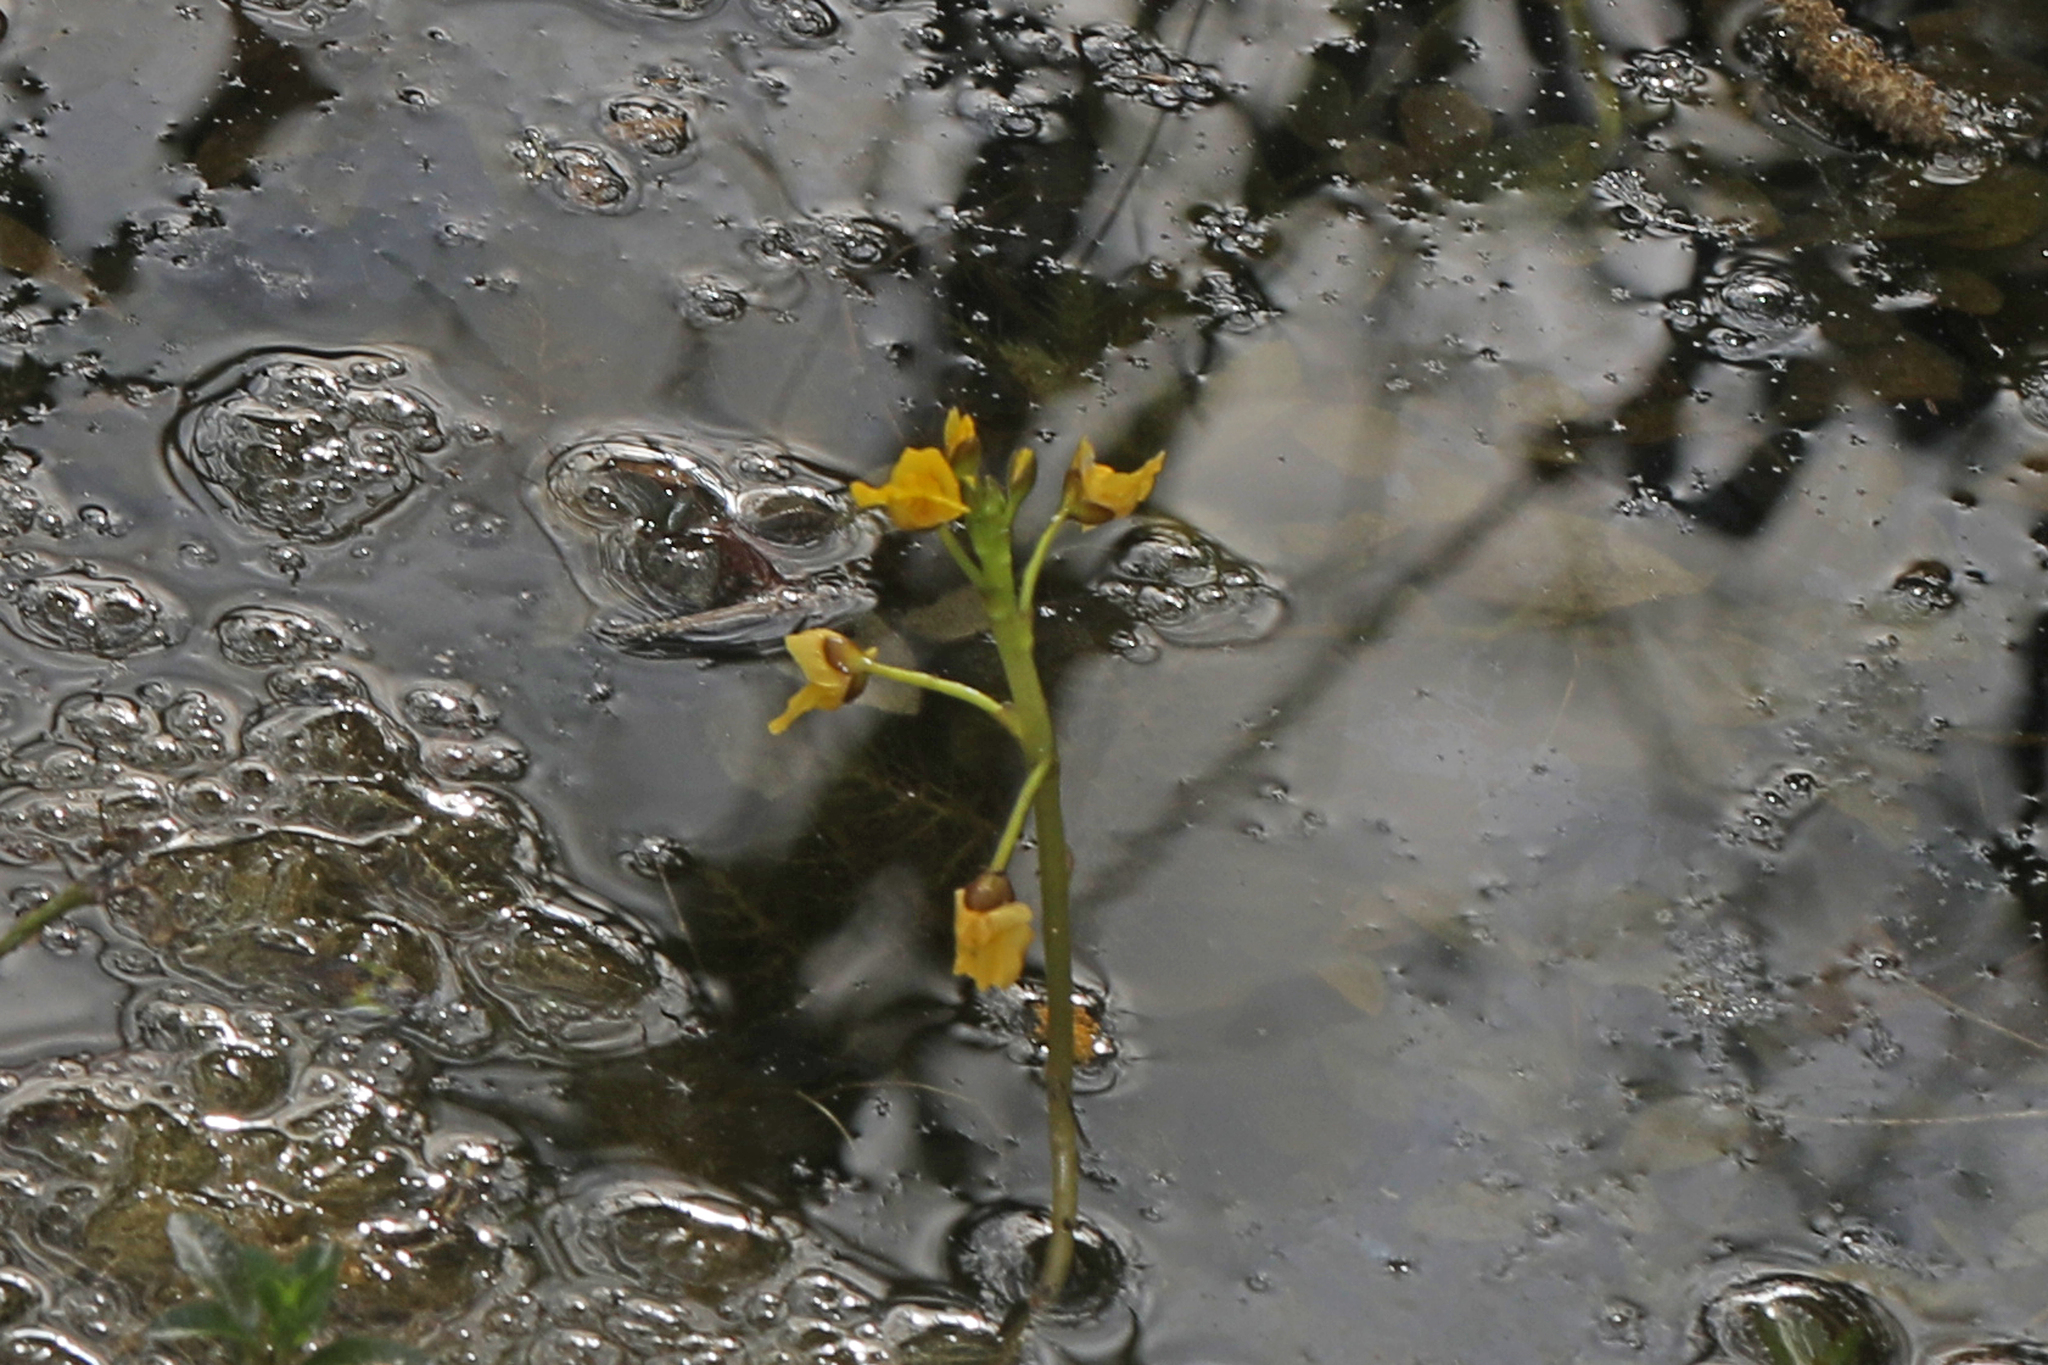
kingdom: Plantae
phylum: Tracheophyta
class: Magnoliopsida
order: Lamiales
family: Lentibulariaceae
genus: Utricularia
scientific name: Utricularia foliosa
